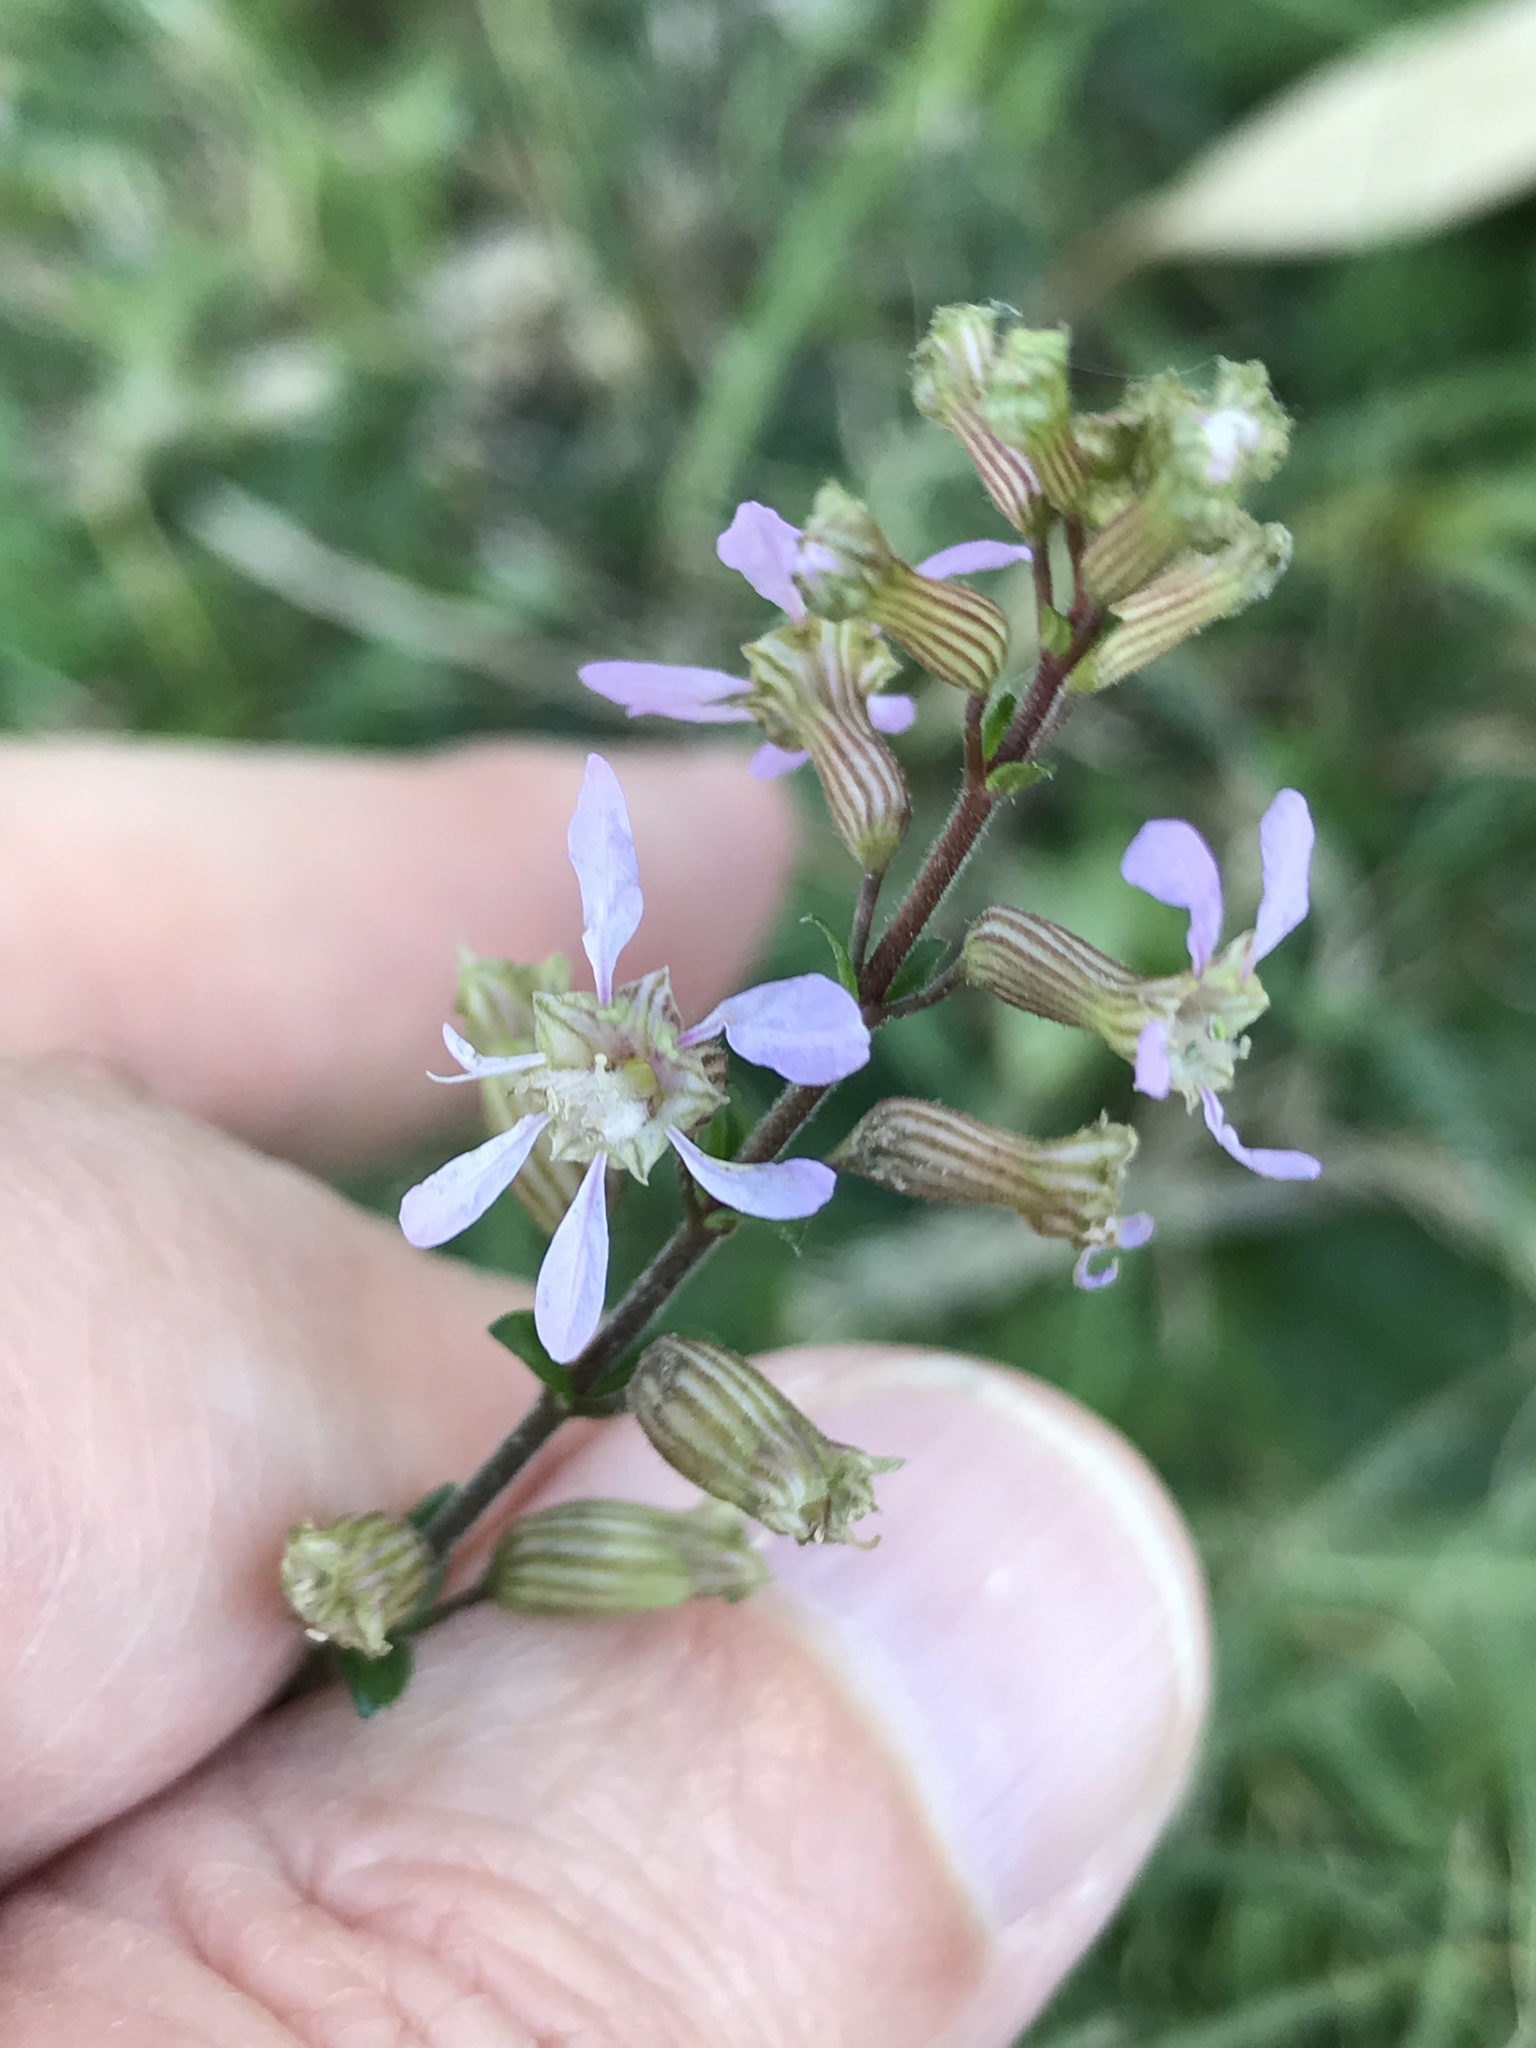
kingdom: Plantae
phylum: Tracheophyta
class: Magnoliopsida
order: Myrtales
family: Lythraceae
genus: Cuphea
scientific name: Cuphea racemosa
